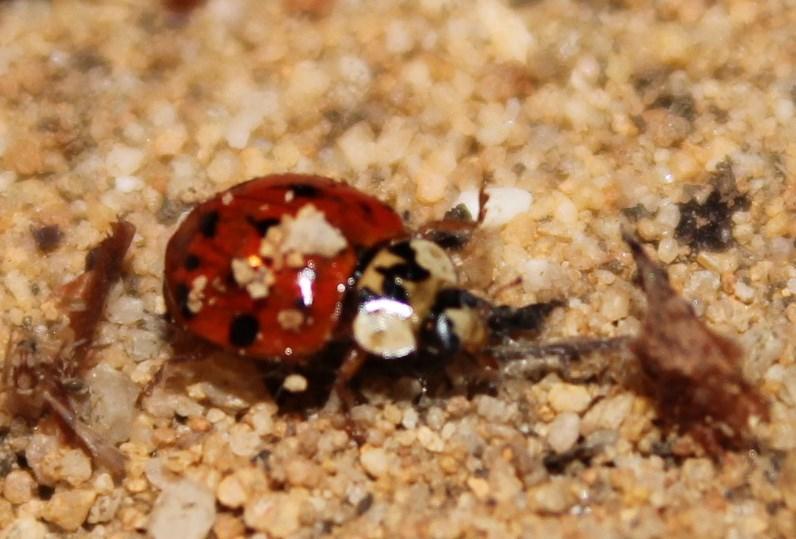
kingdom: Animalia
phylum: Arthropoda
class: Insecta
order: Coleoptera
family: Coccinellidae
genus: Harmonia
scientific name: Harmonia axyridis
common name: Harlequin ladybird
